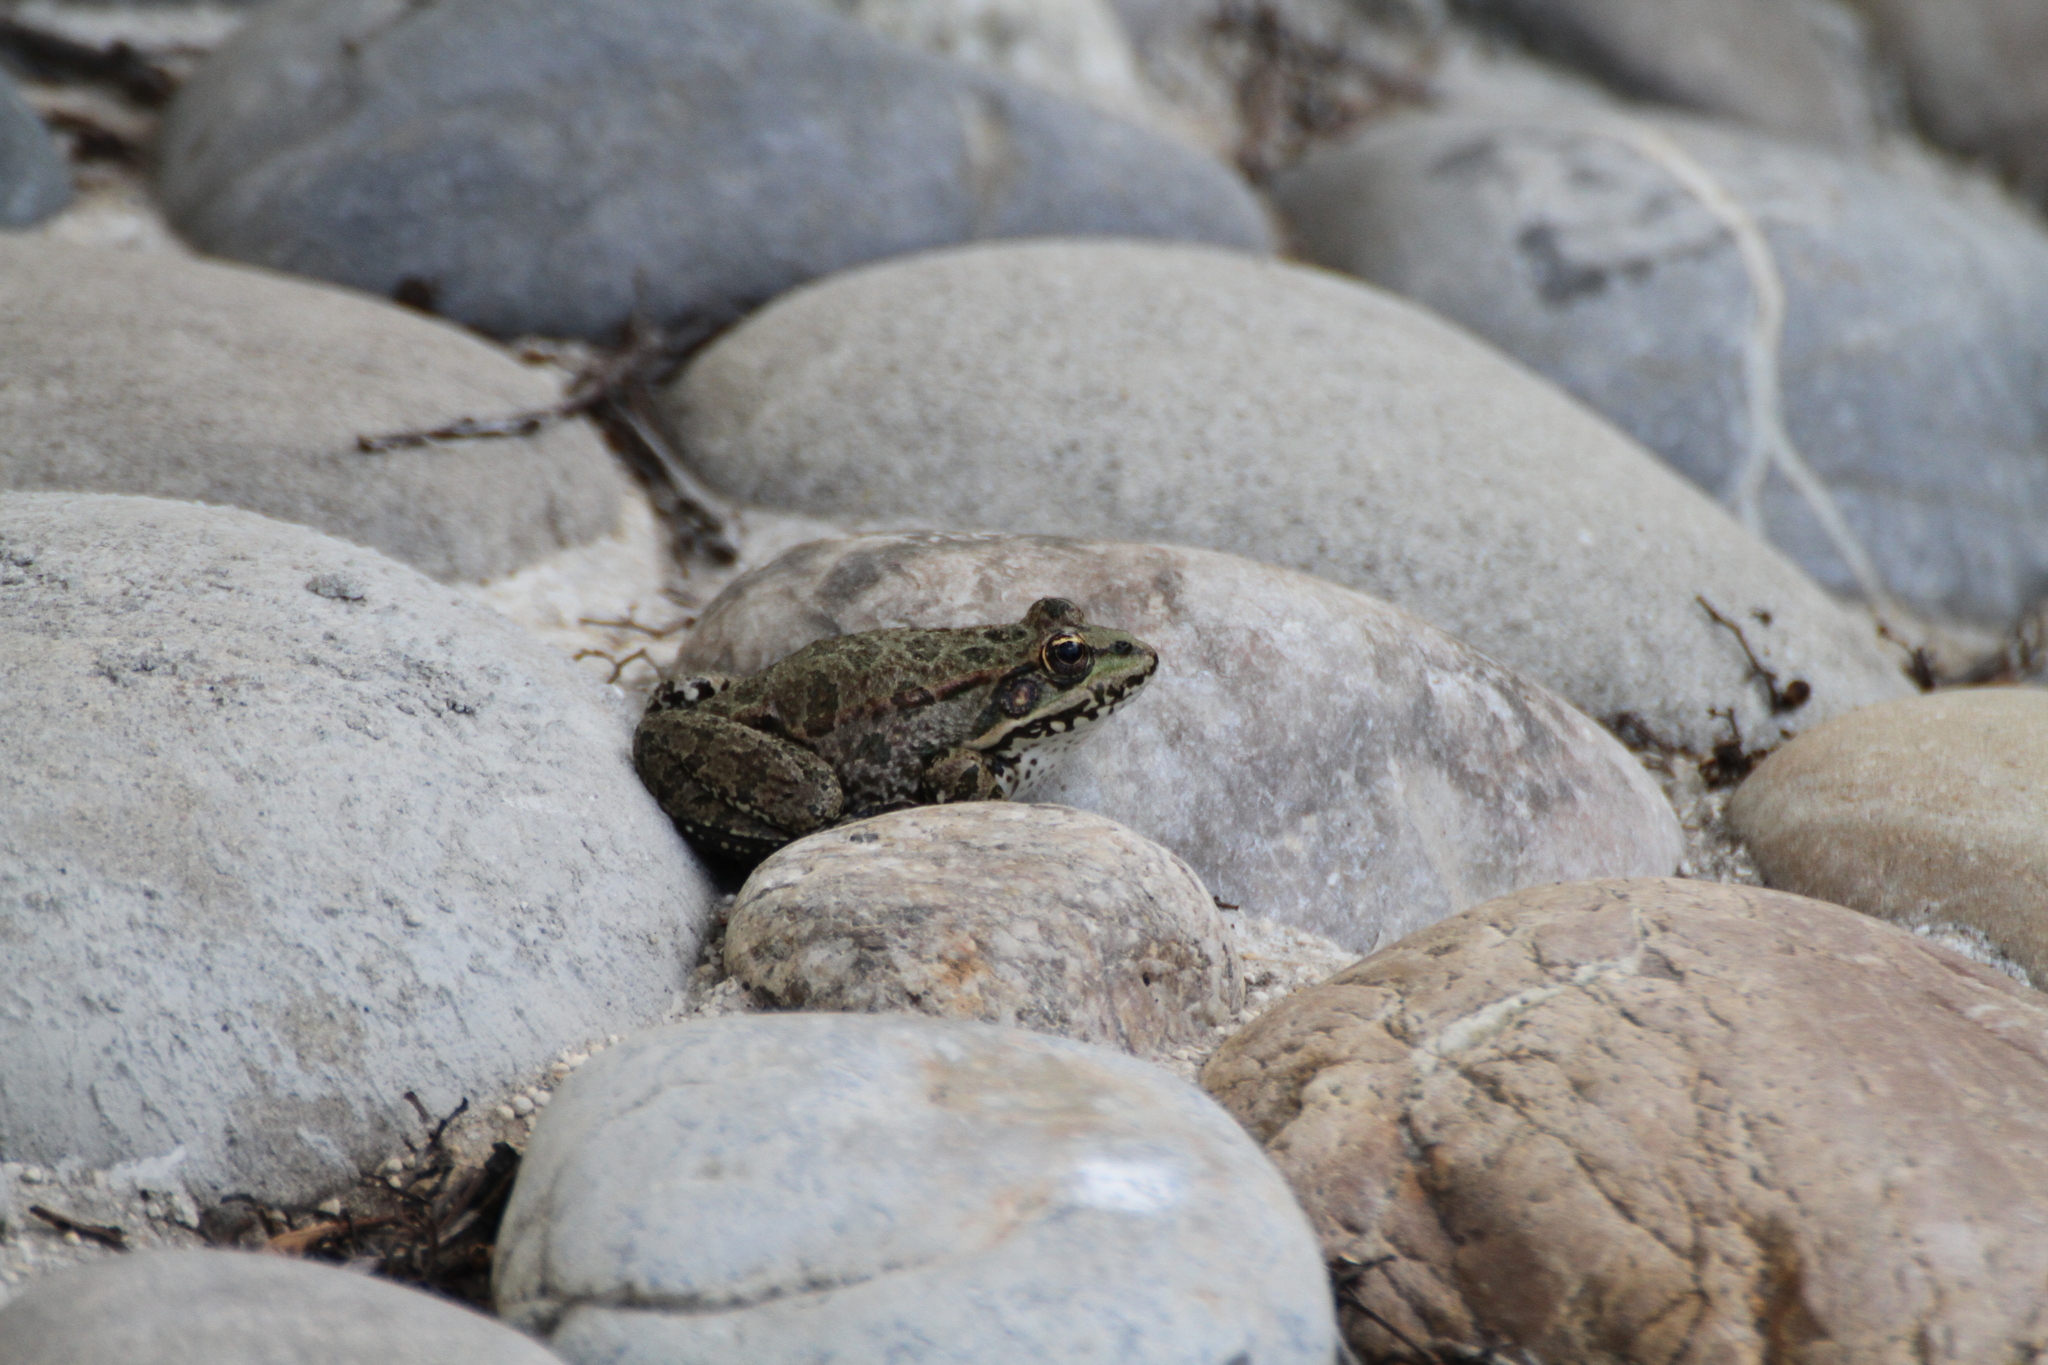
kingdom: Animalia
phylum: Chordata
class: Amphibia
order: Anura
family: Ranidae
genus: Pelophylax
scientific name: Pelophylax
